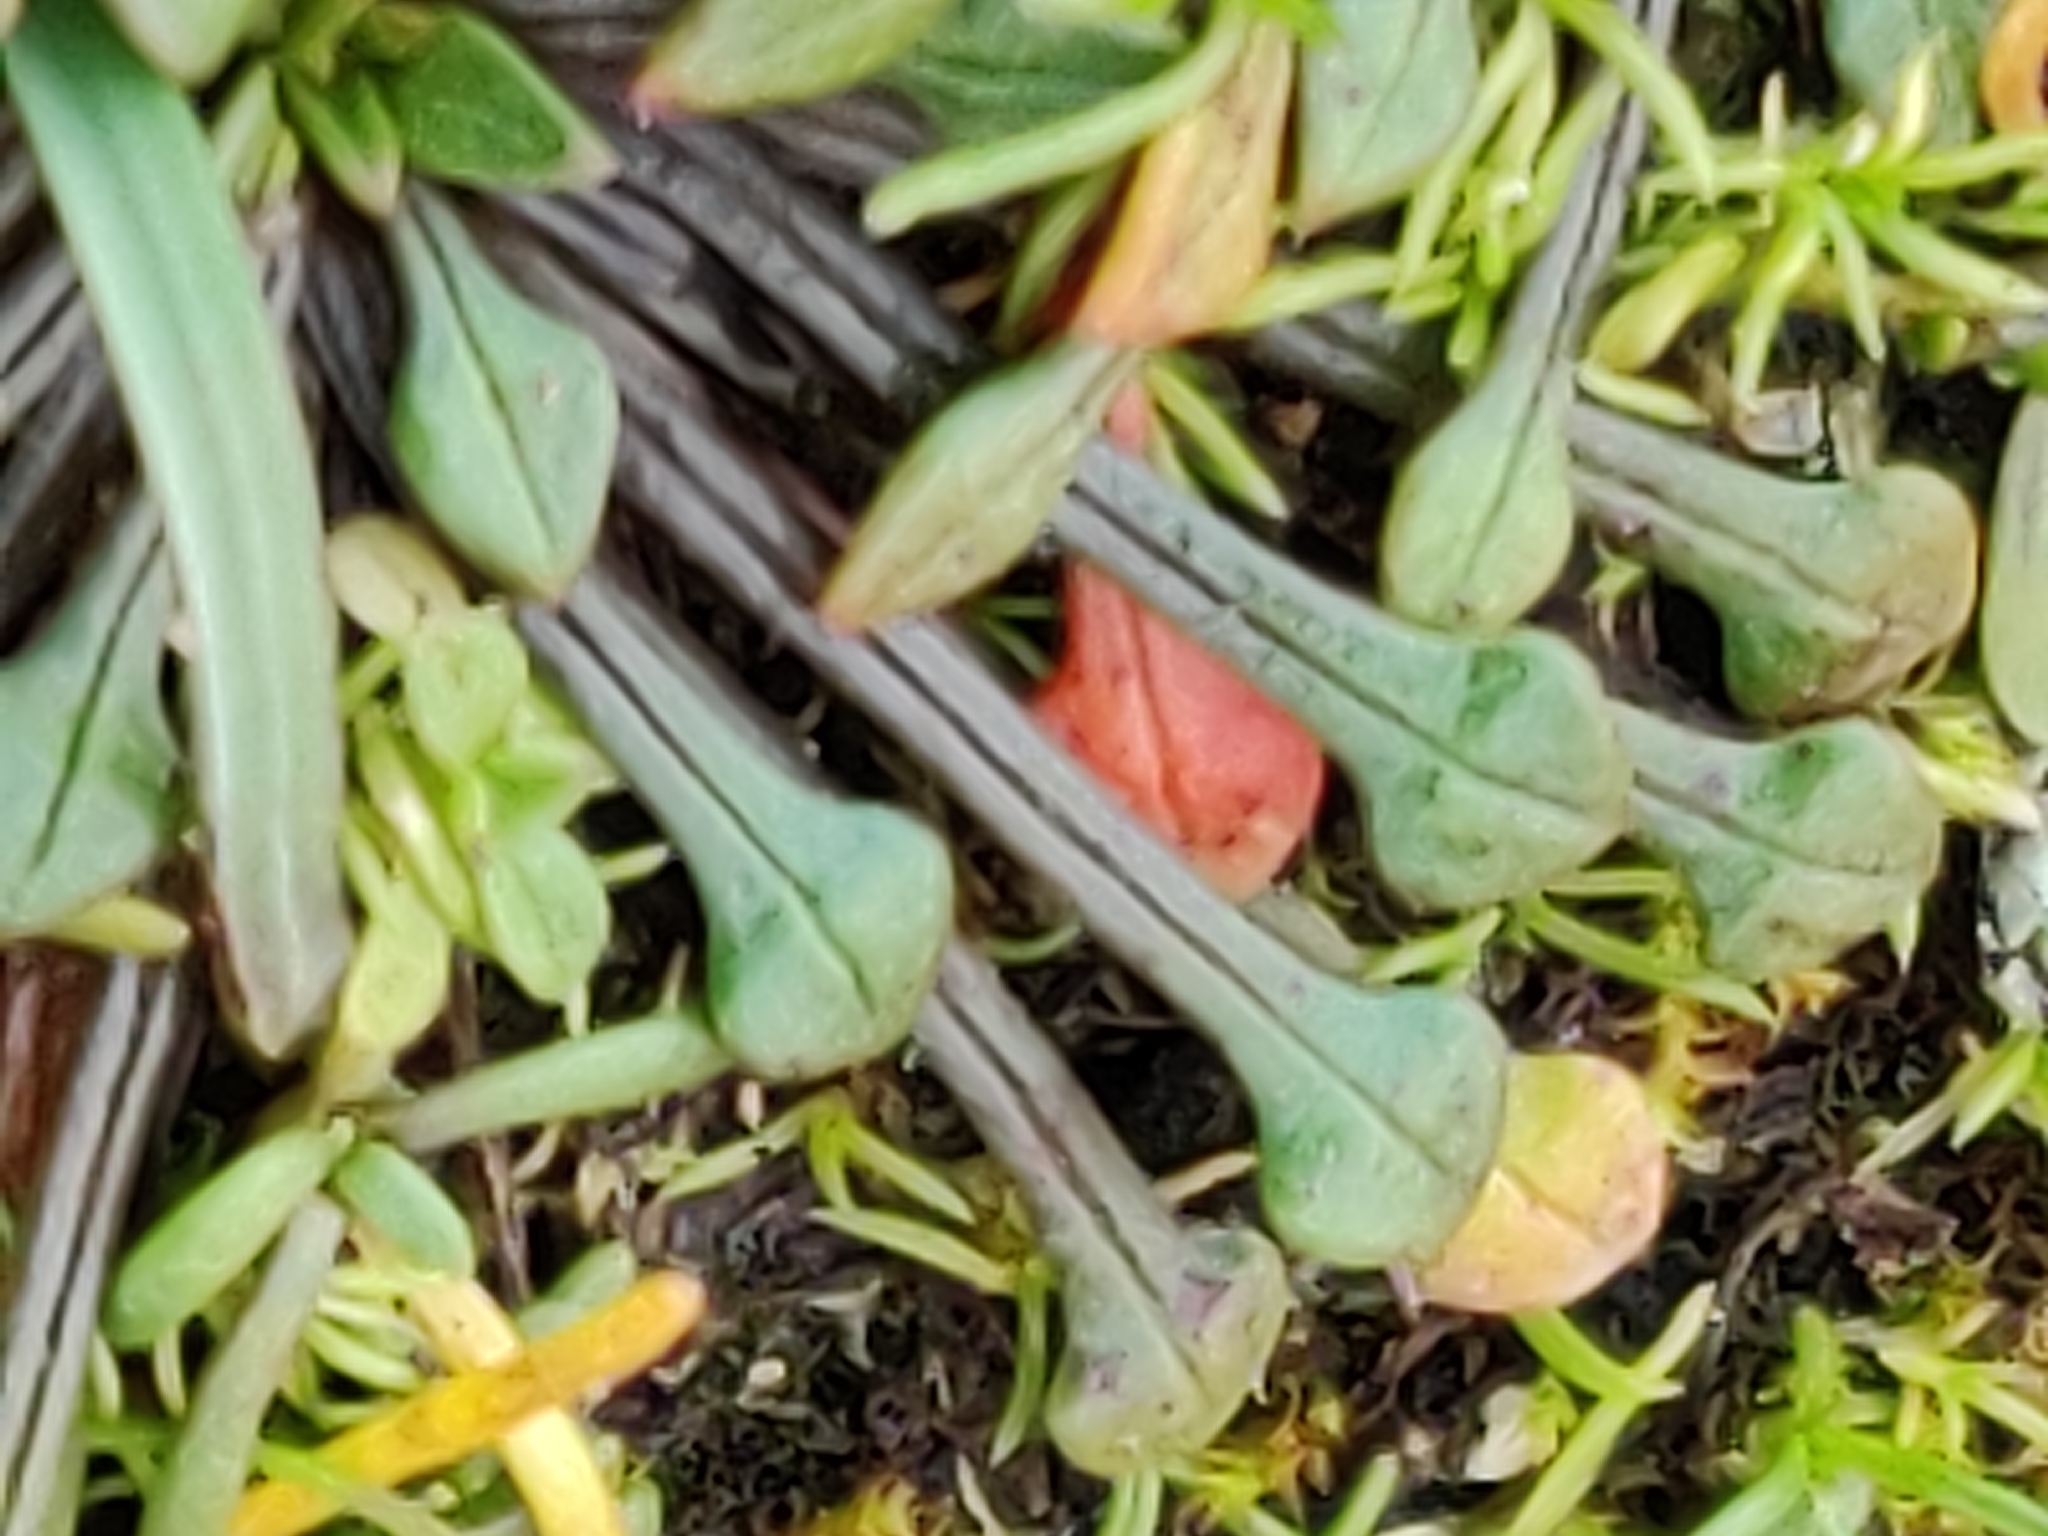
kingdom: Plantae
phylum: Tracheophyta
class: Magnoliopsida
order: Caryophyllales
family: Montiaceae
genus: Calandrinia
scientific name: Calandrinia menziesii
